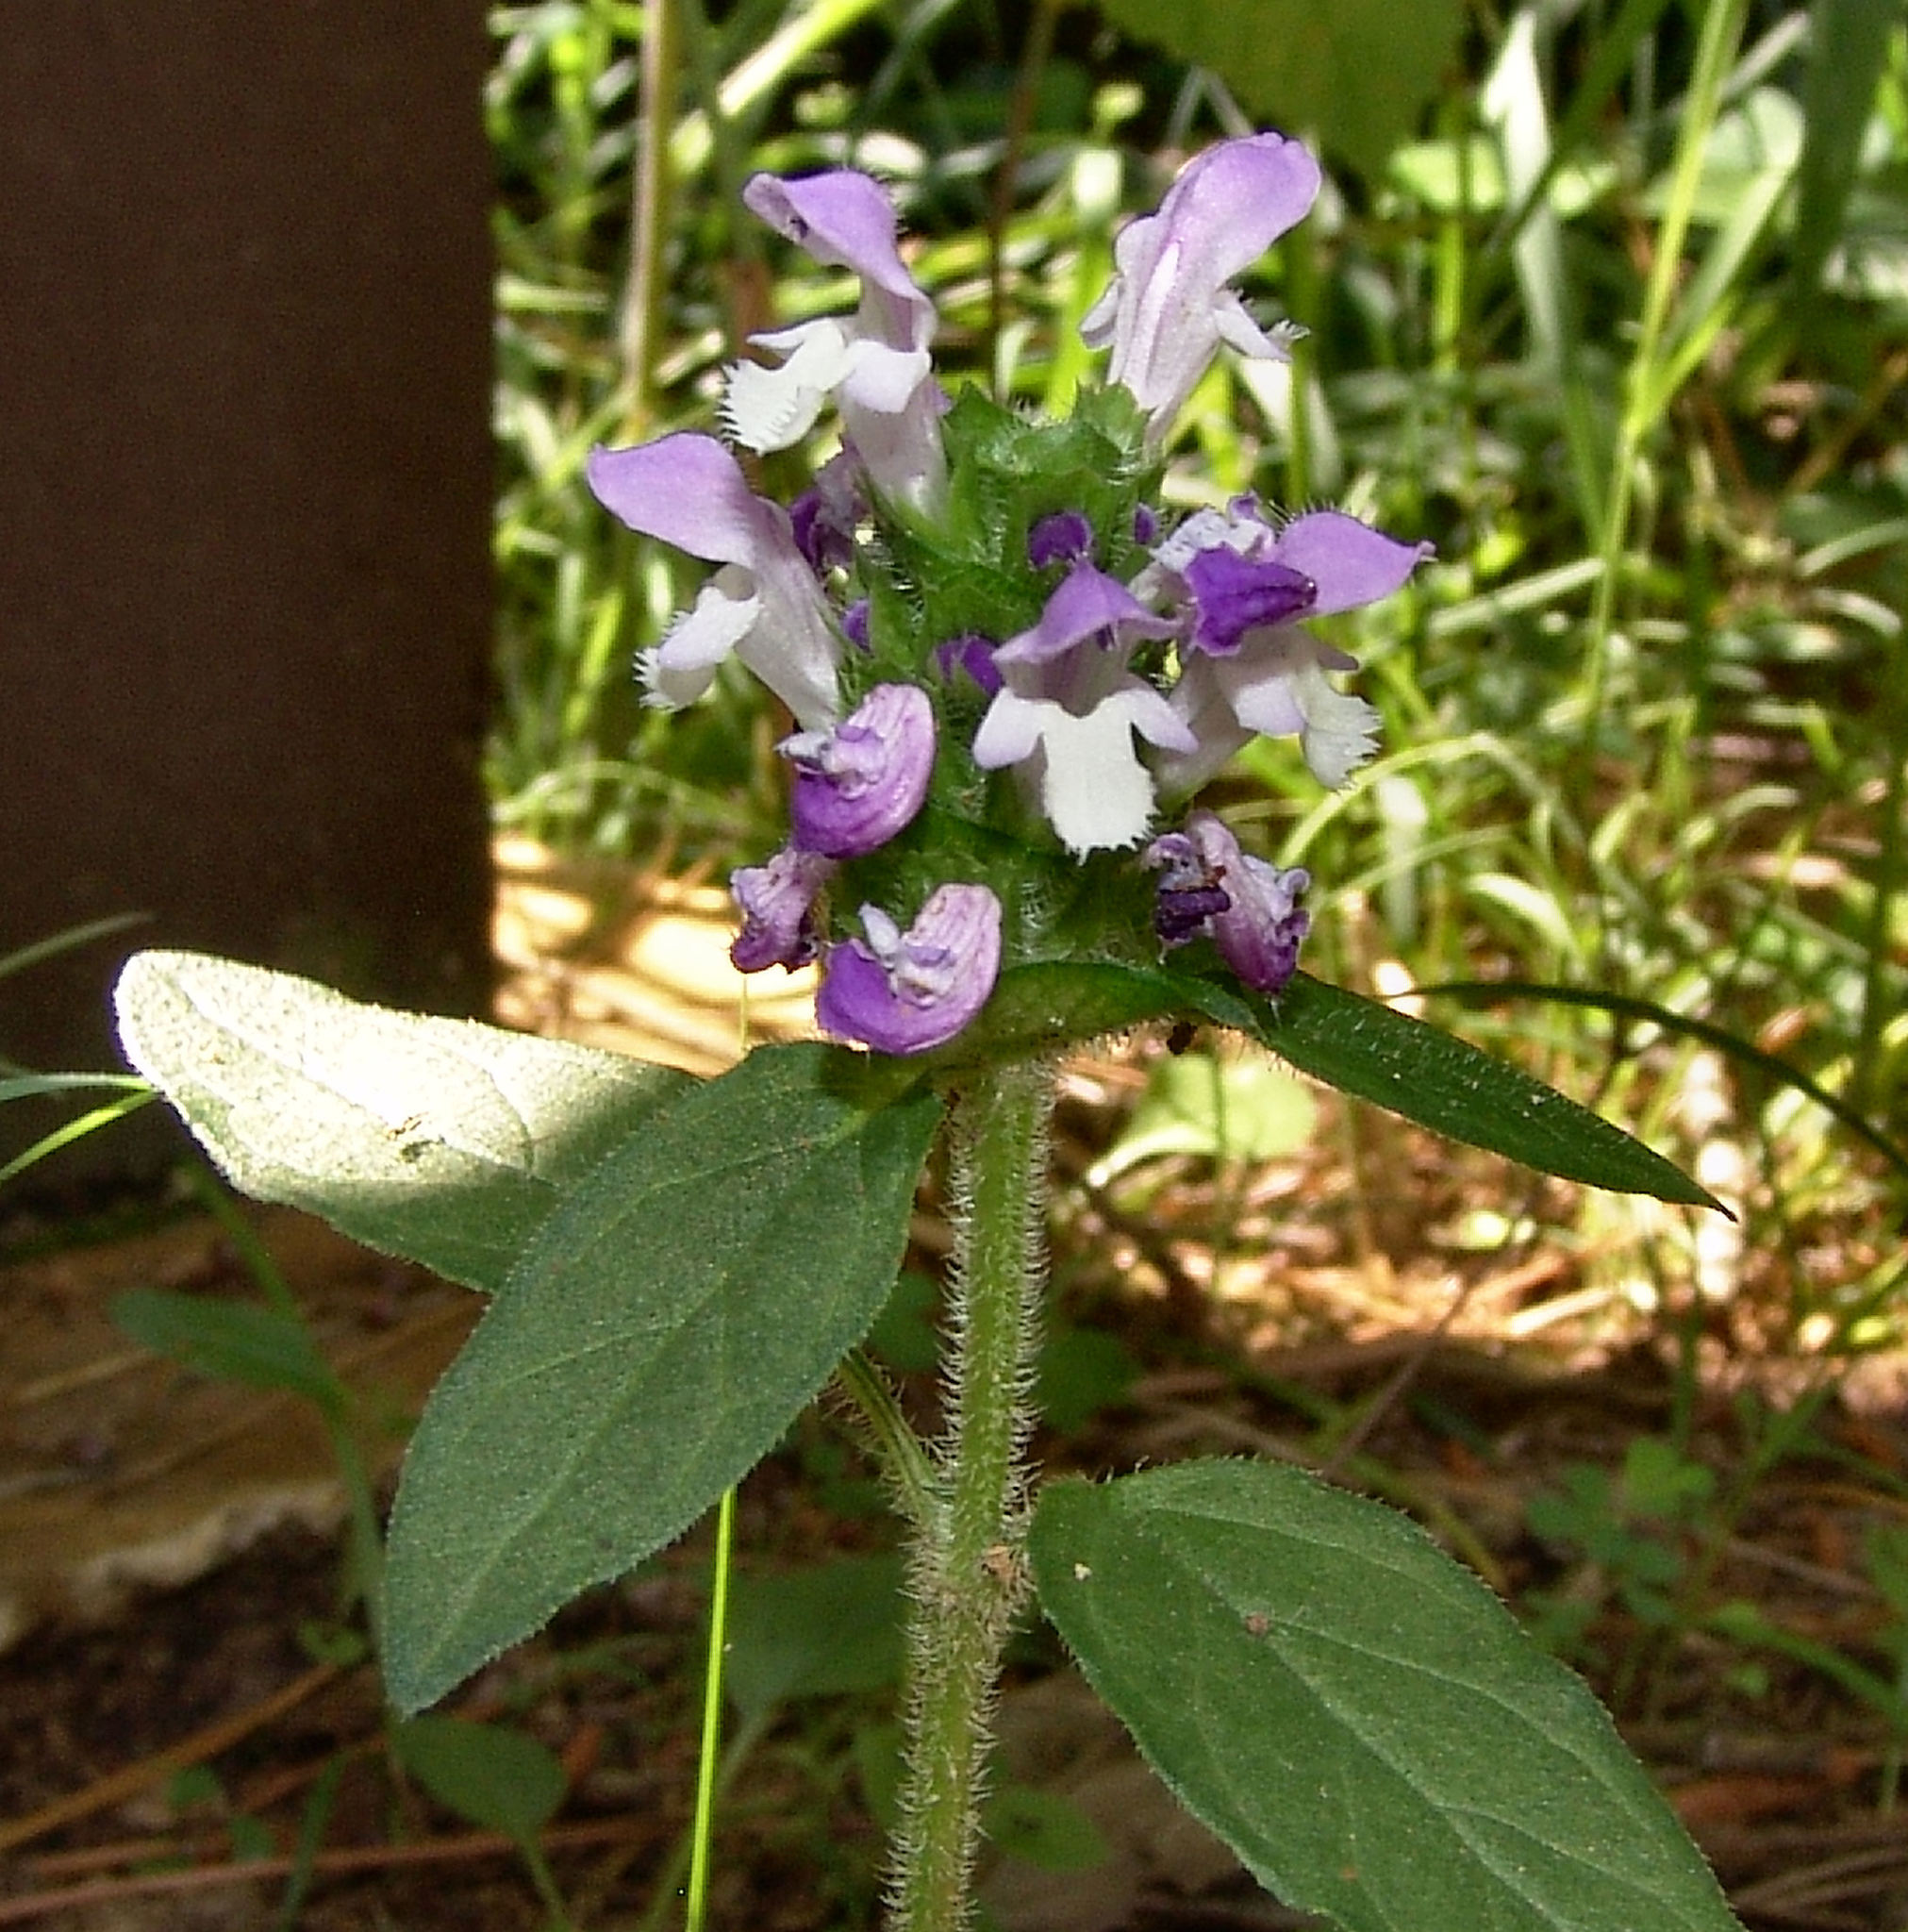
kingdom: Plantae
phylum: Tracheophyta
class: Magnoliopsida
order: Lamiales
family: Lamiaceae
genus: Prunella
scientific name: Prunella vulgaris
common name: Heal-all
